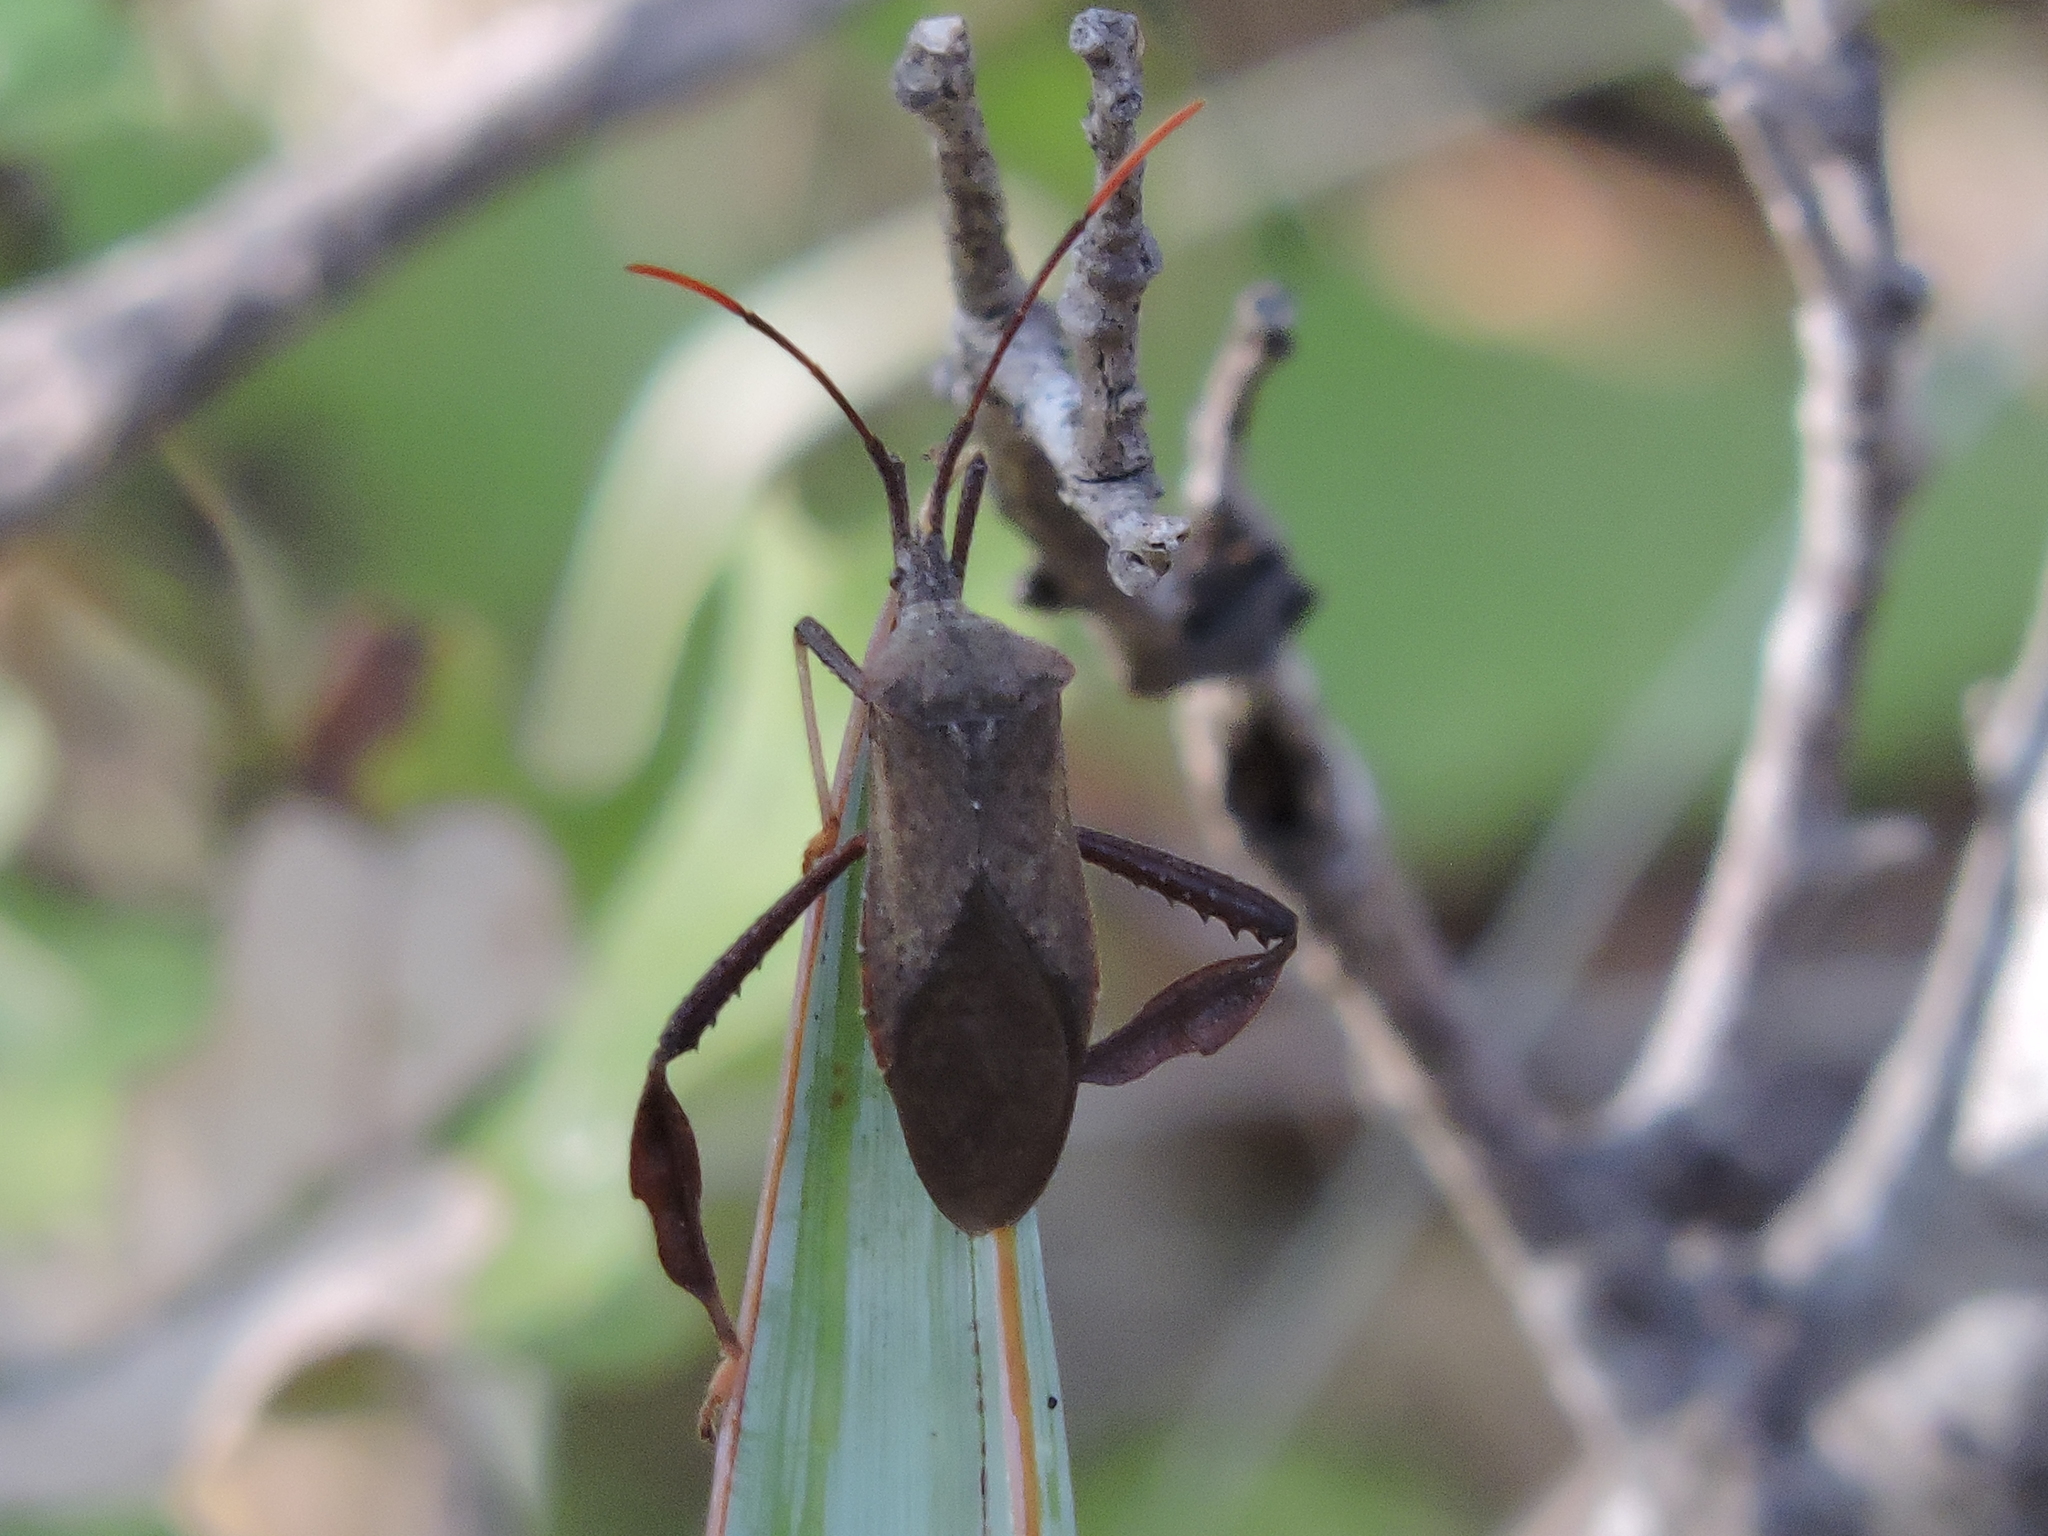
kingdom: Animalia
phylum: Arthropoda
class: Insecta
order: Hemiptera
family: Coreidae
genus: Acanthocephala
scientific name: Acanthocephala terminalis
